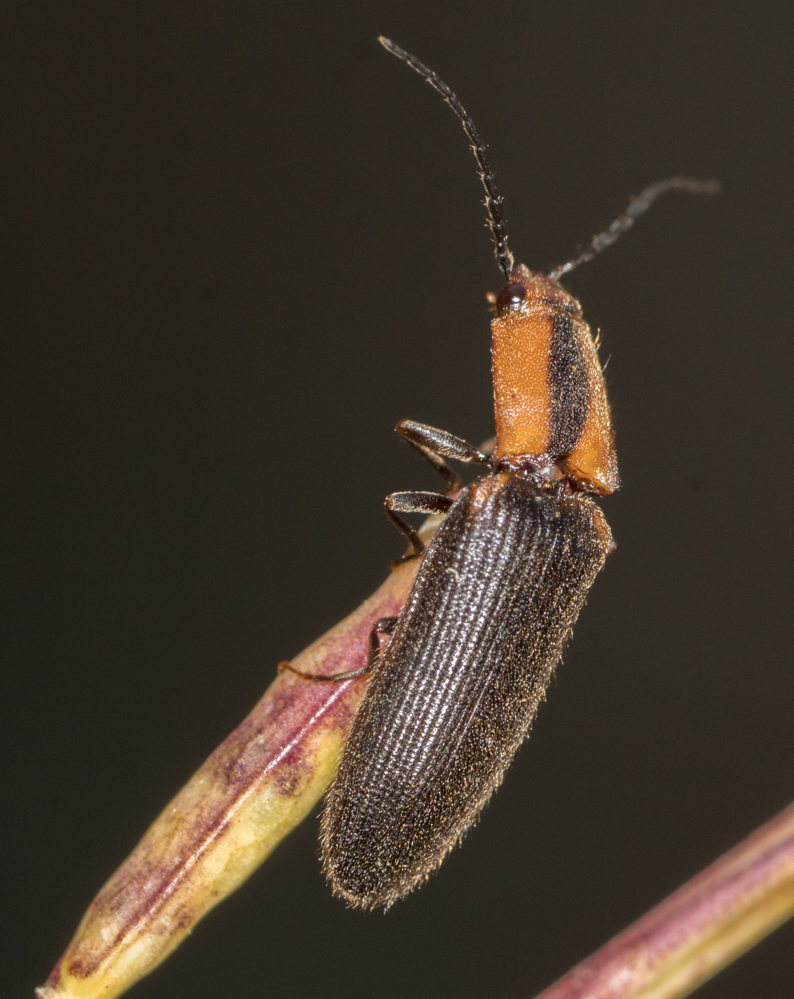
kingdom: Animalia
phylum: Arthropoda
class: Insecta
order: Coleoptera
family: Elateridae
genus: Athous
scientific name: Athous
